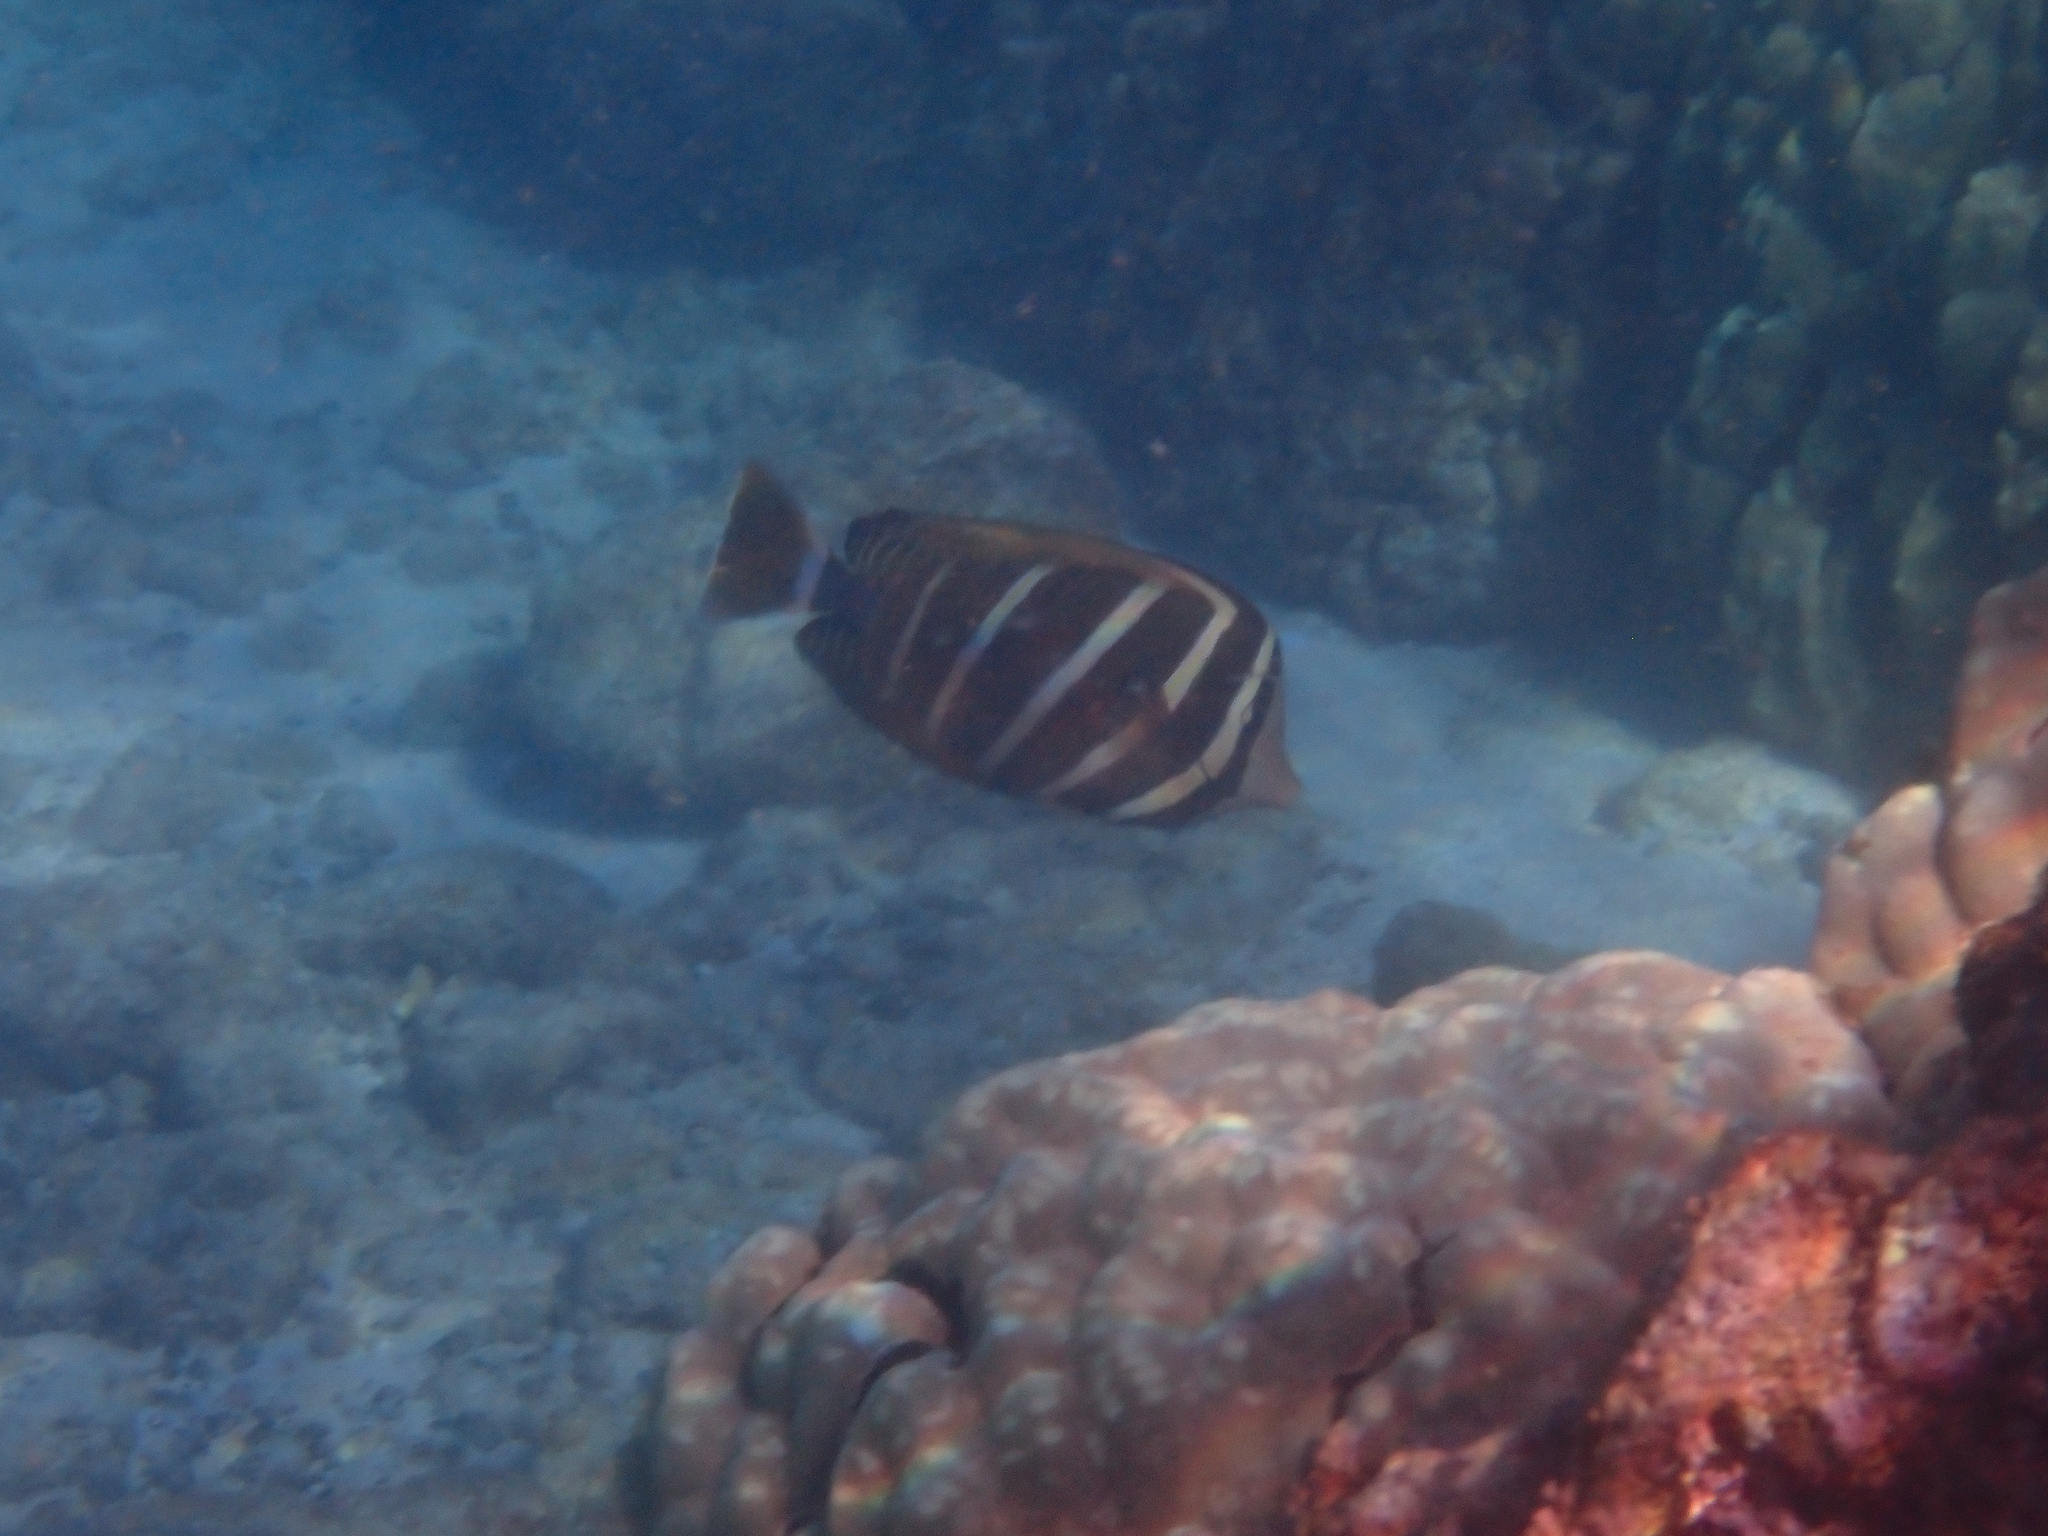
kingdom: Animalia
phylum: Chordata
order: Perciformes
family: Acanthuridae
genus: Zebrasoma
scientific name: Zebrasoma veliferum
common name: Sailfin surgeonfish
